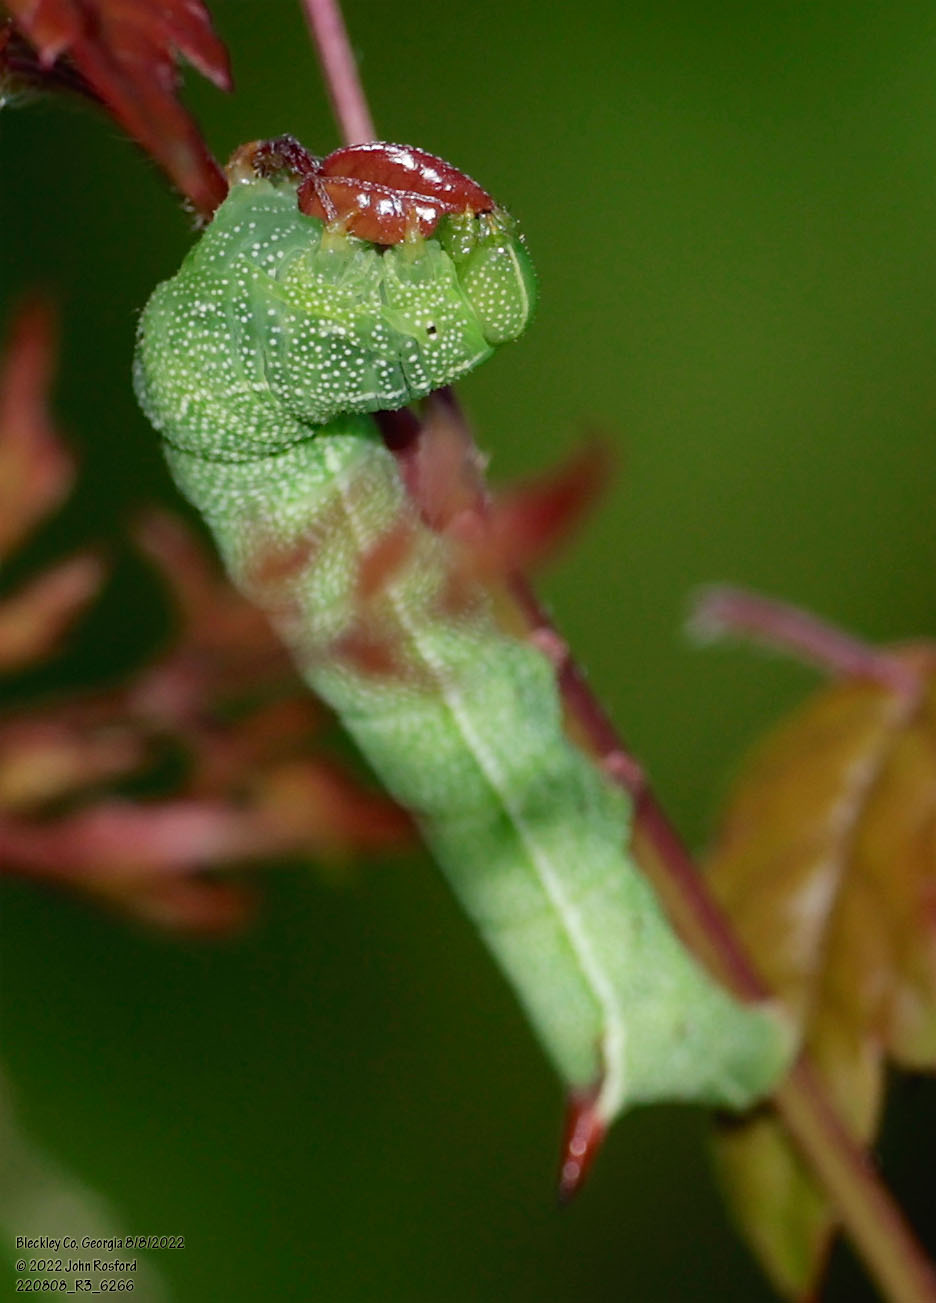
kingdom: Animalia
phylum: Arthropoda
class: Insecta
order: Lepidoptera
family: Sphingidae
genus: Amphion
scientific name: Amphion floridensis
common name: Nessus sphinx
